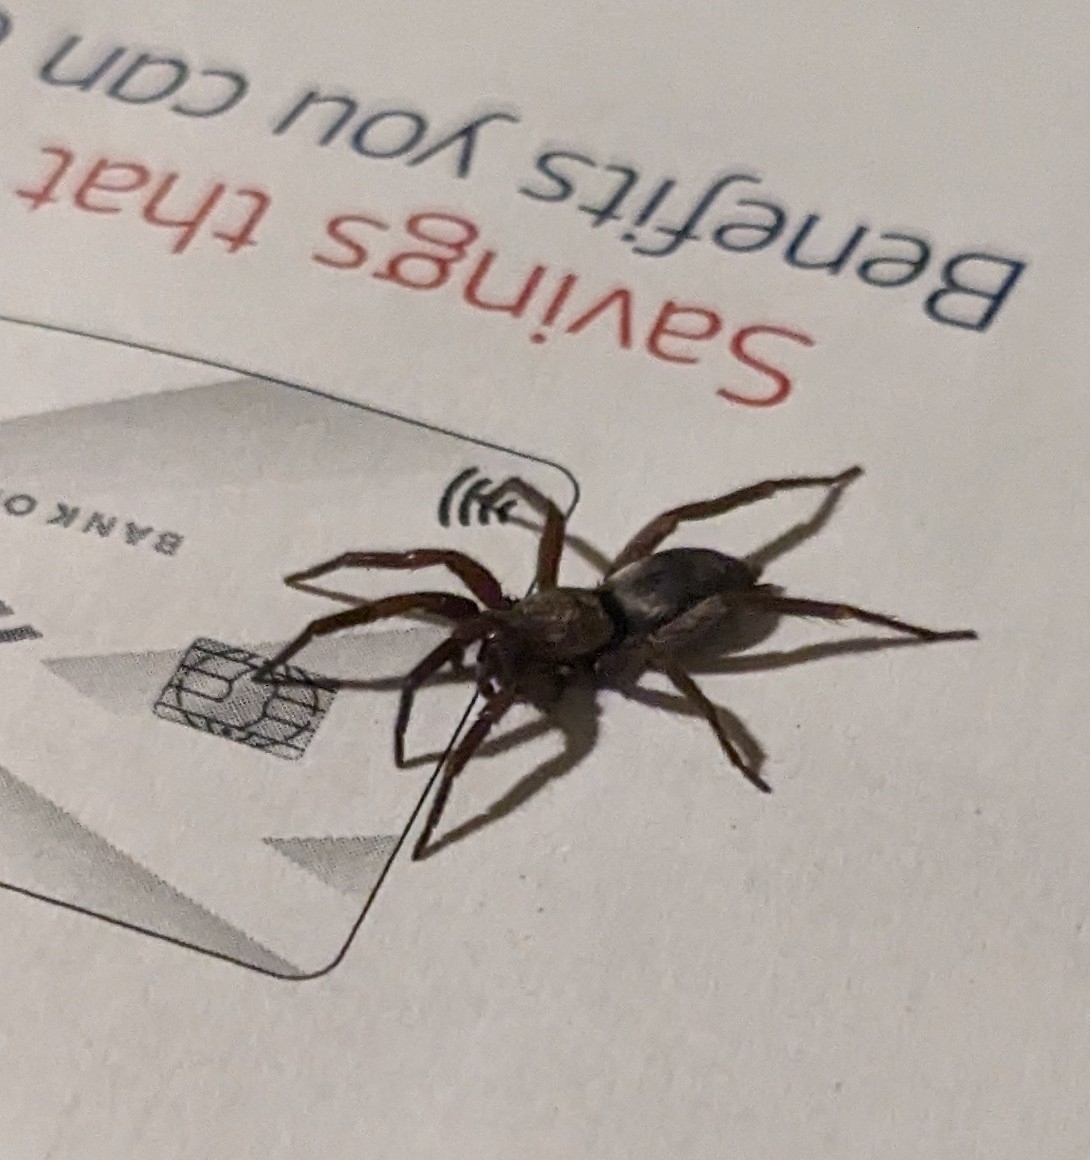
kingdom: Animalia
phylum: Arthropoda
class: Arachnida
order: Araneae
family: Gnaphosidae
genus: Scotophaeus
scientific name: Scotophaeus blackwalli
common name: Mouse spider
